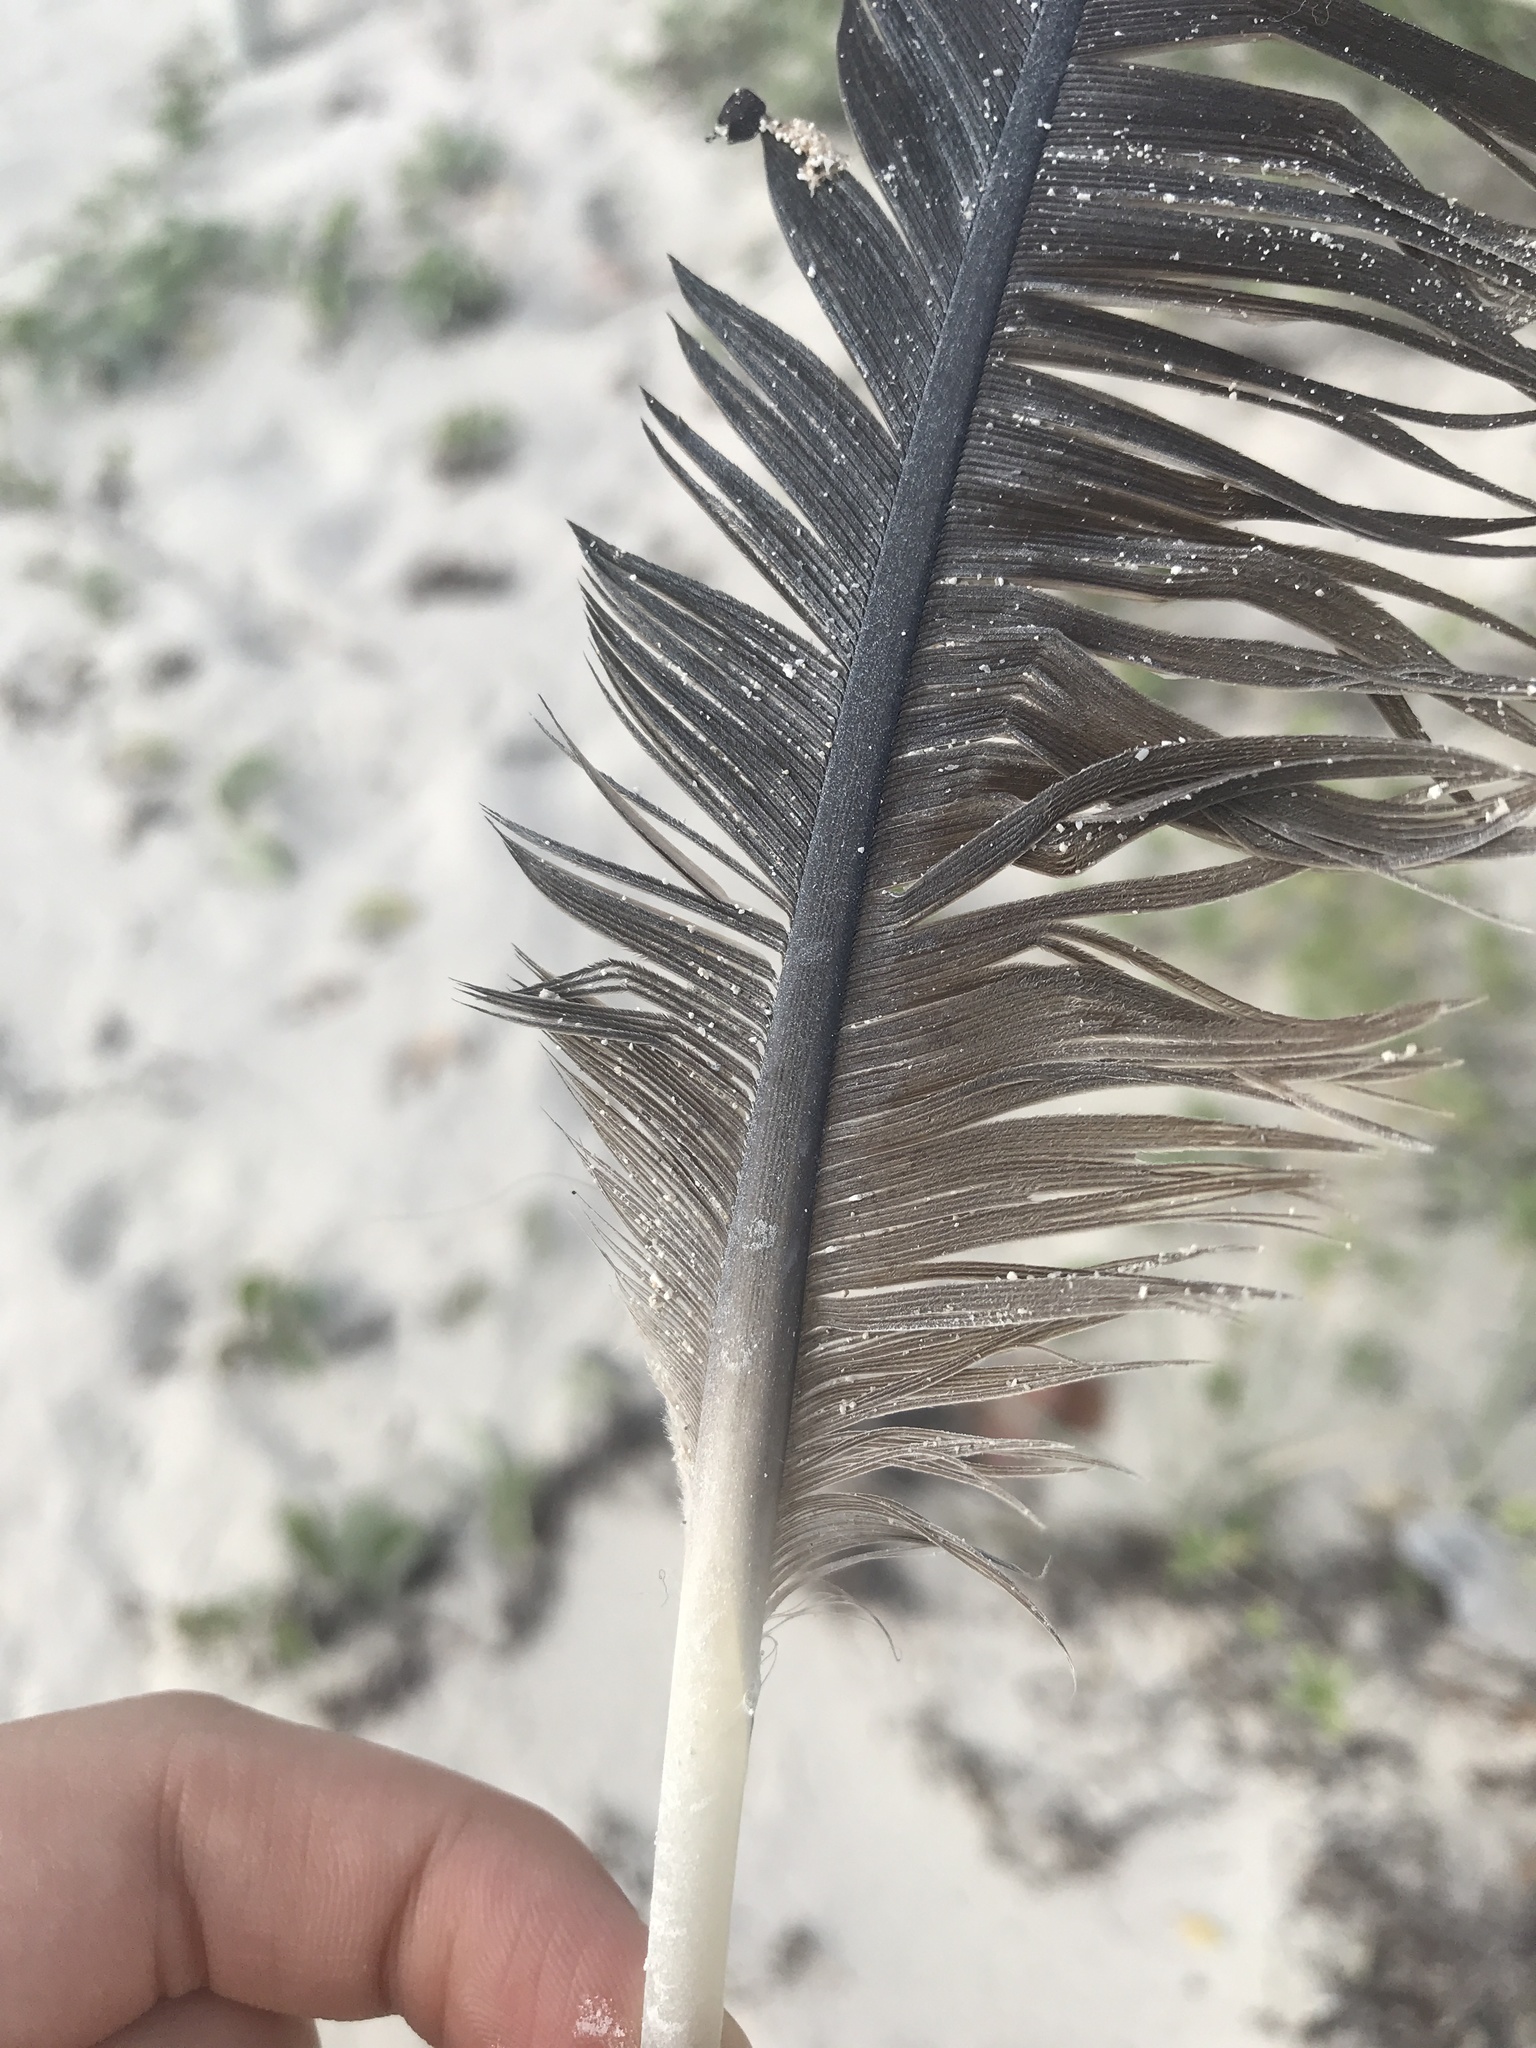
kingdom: Animalia
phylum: Chordata
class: Aves
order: Anseriformes
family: Anatidae
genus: Alopochen
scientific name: Alopochen aegyptiaca
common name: Egyptian goose
